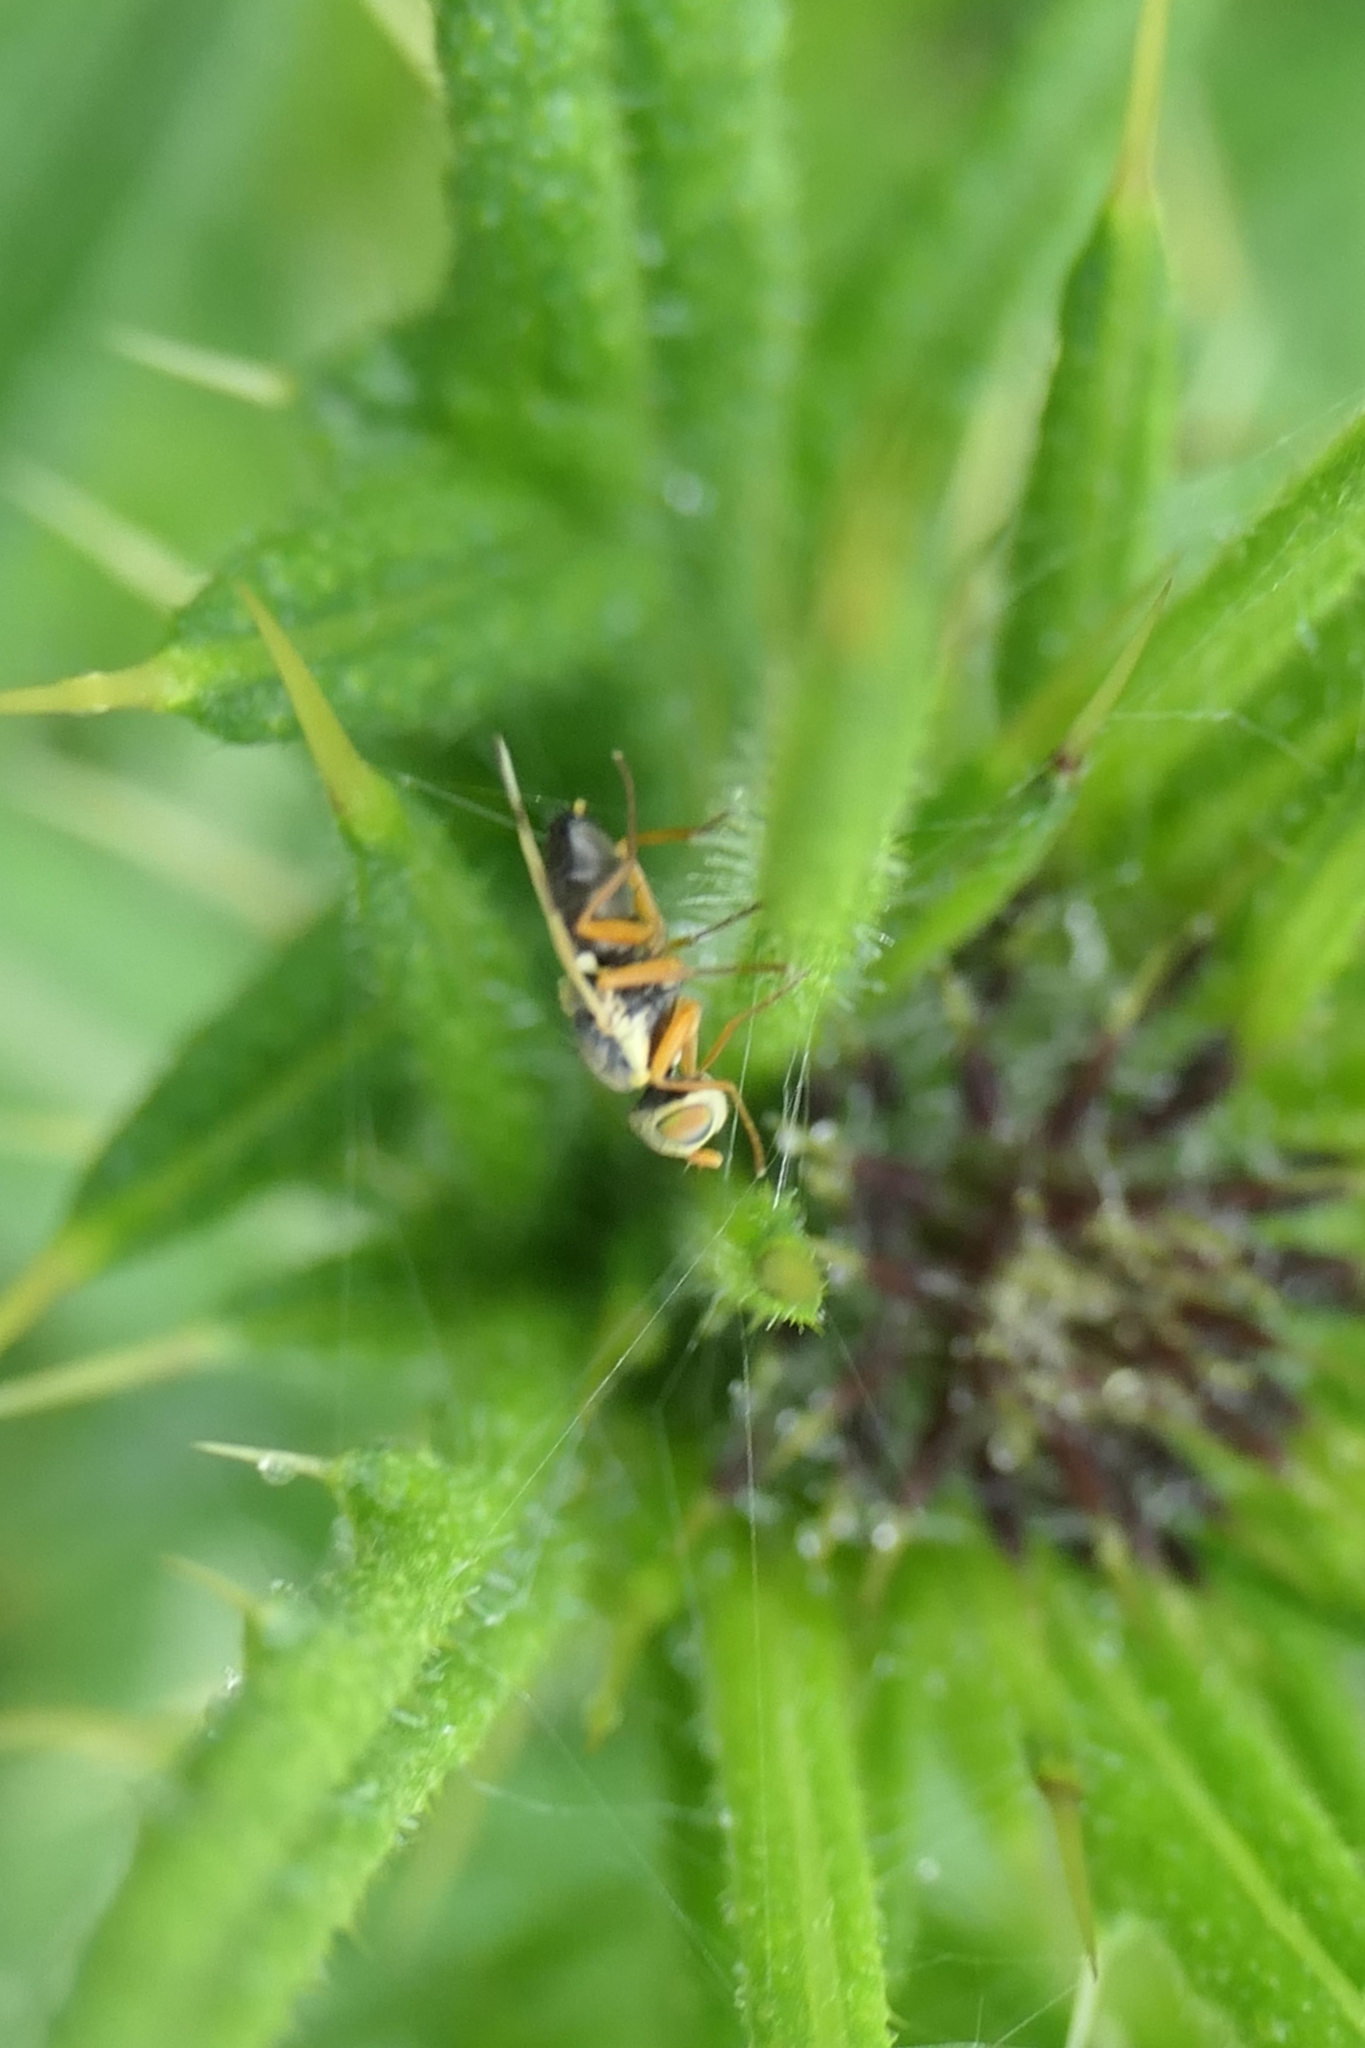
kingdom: Animalia
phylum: Arthropoda
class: Insecta
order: Diptera
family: Tephritidae
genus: Urophora
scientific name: Urophora stylata
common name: Fruit fly
